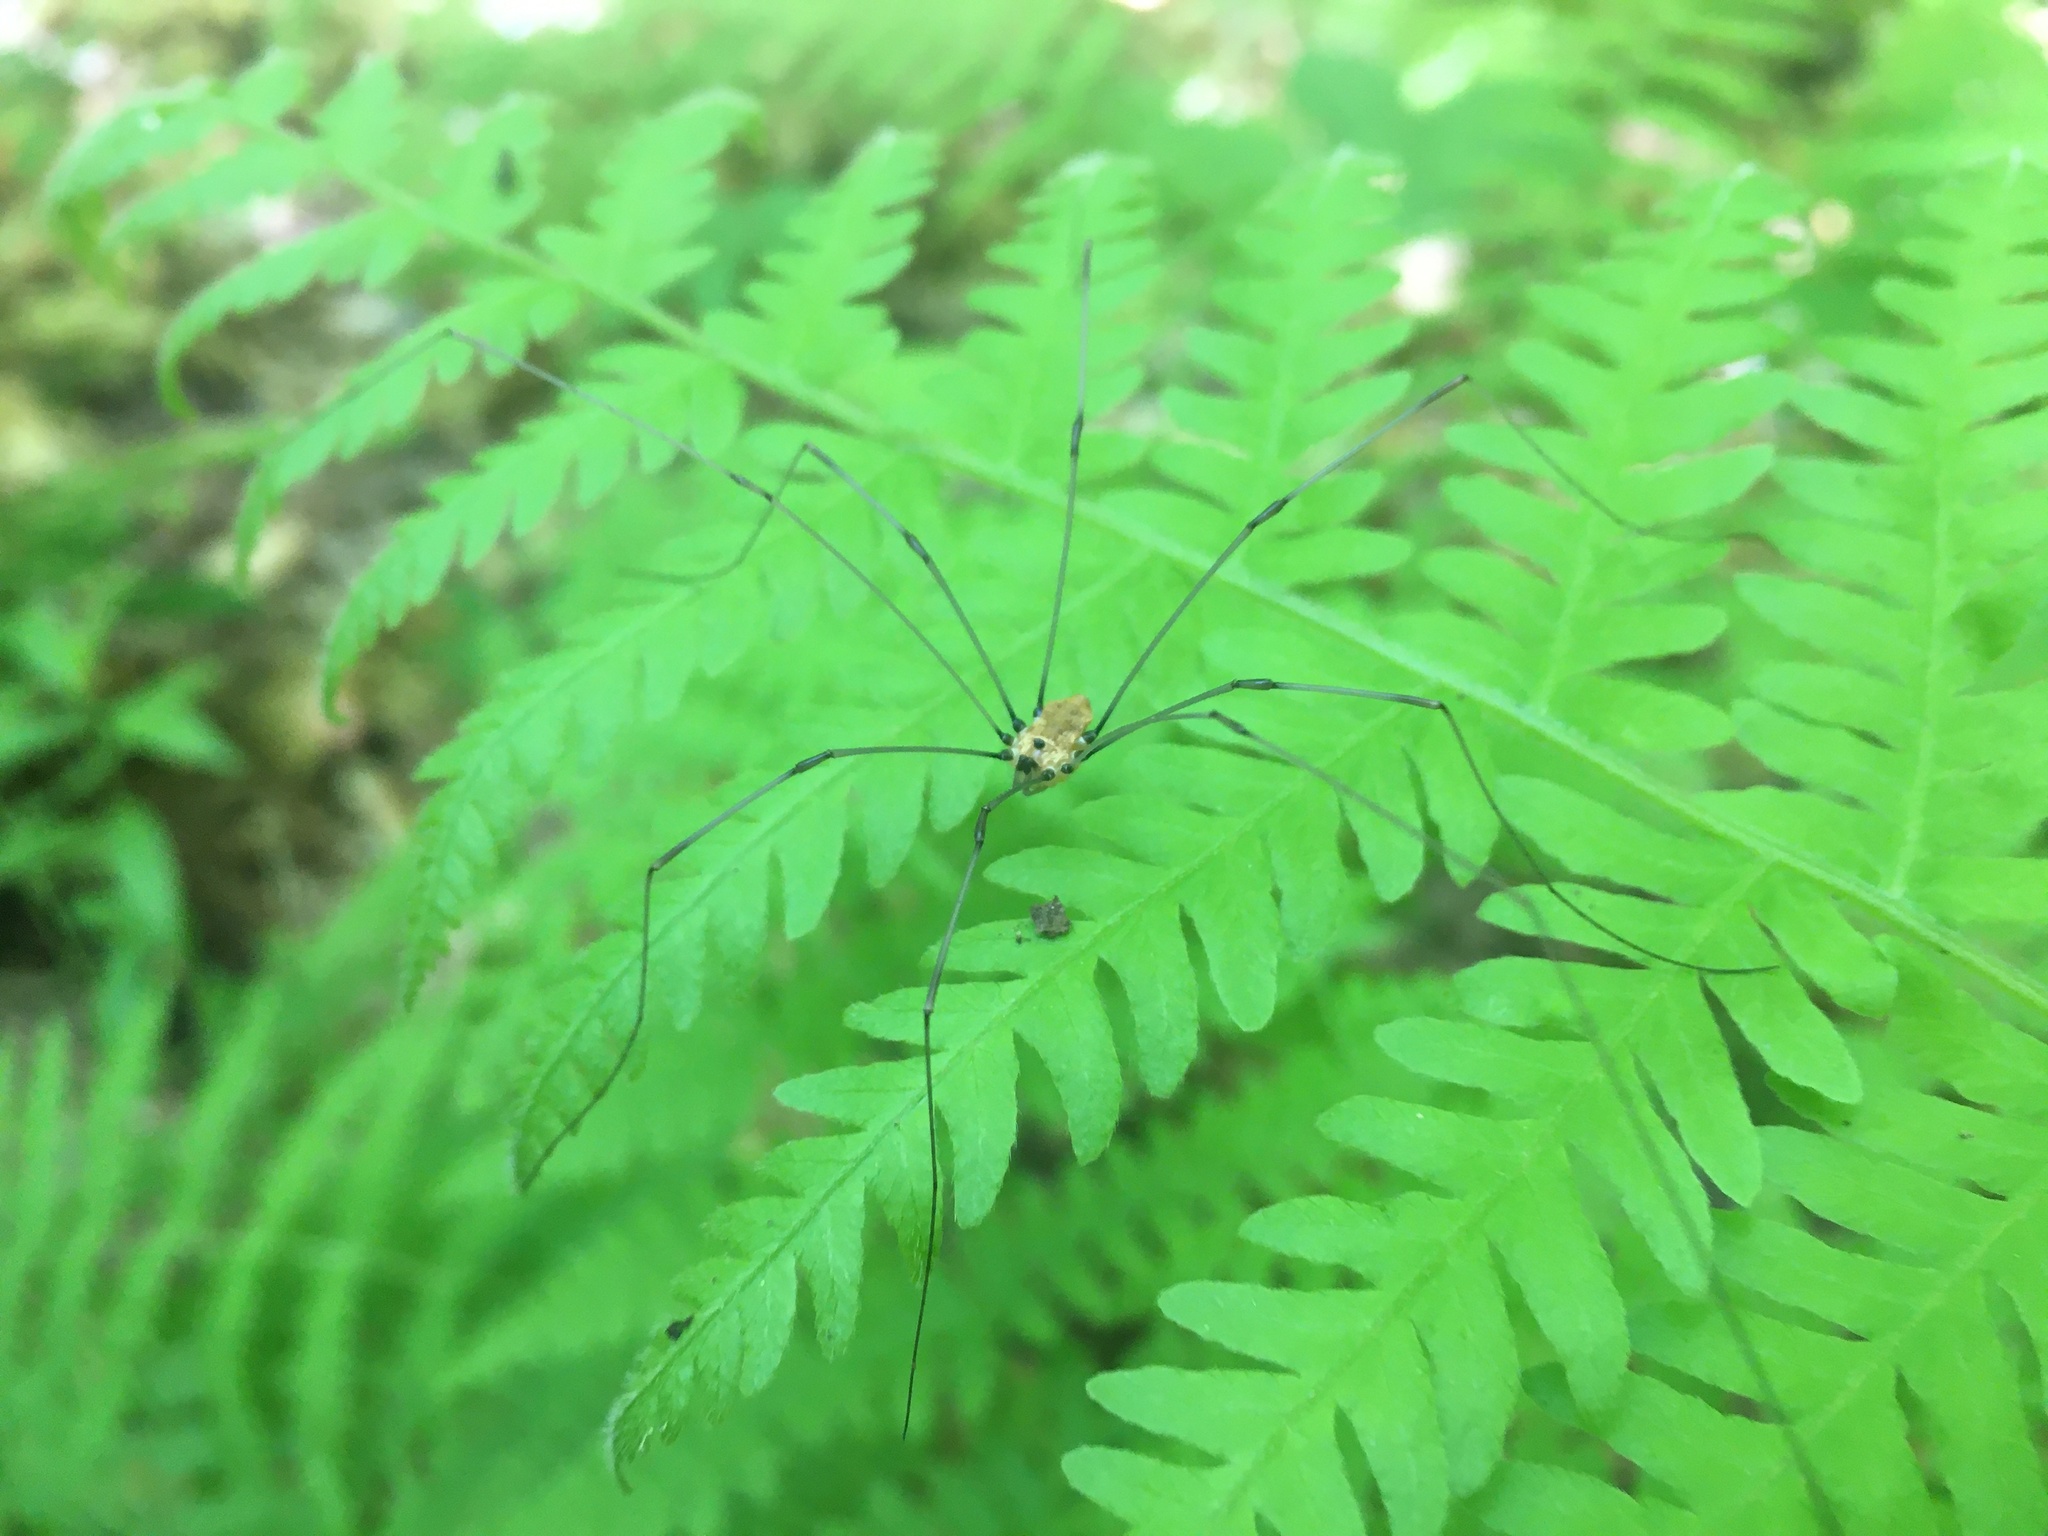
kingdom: Animalia
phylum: Arthropoda
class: Arachnida
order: Opiliones
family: Sclerosomatidae
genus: Leiobunum
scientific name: Leiobunum nigropalpi
